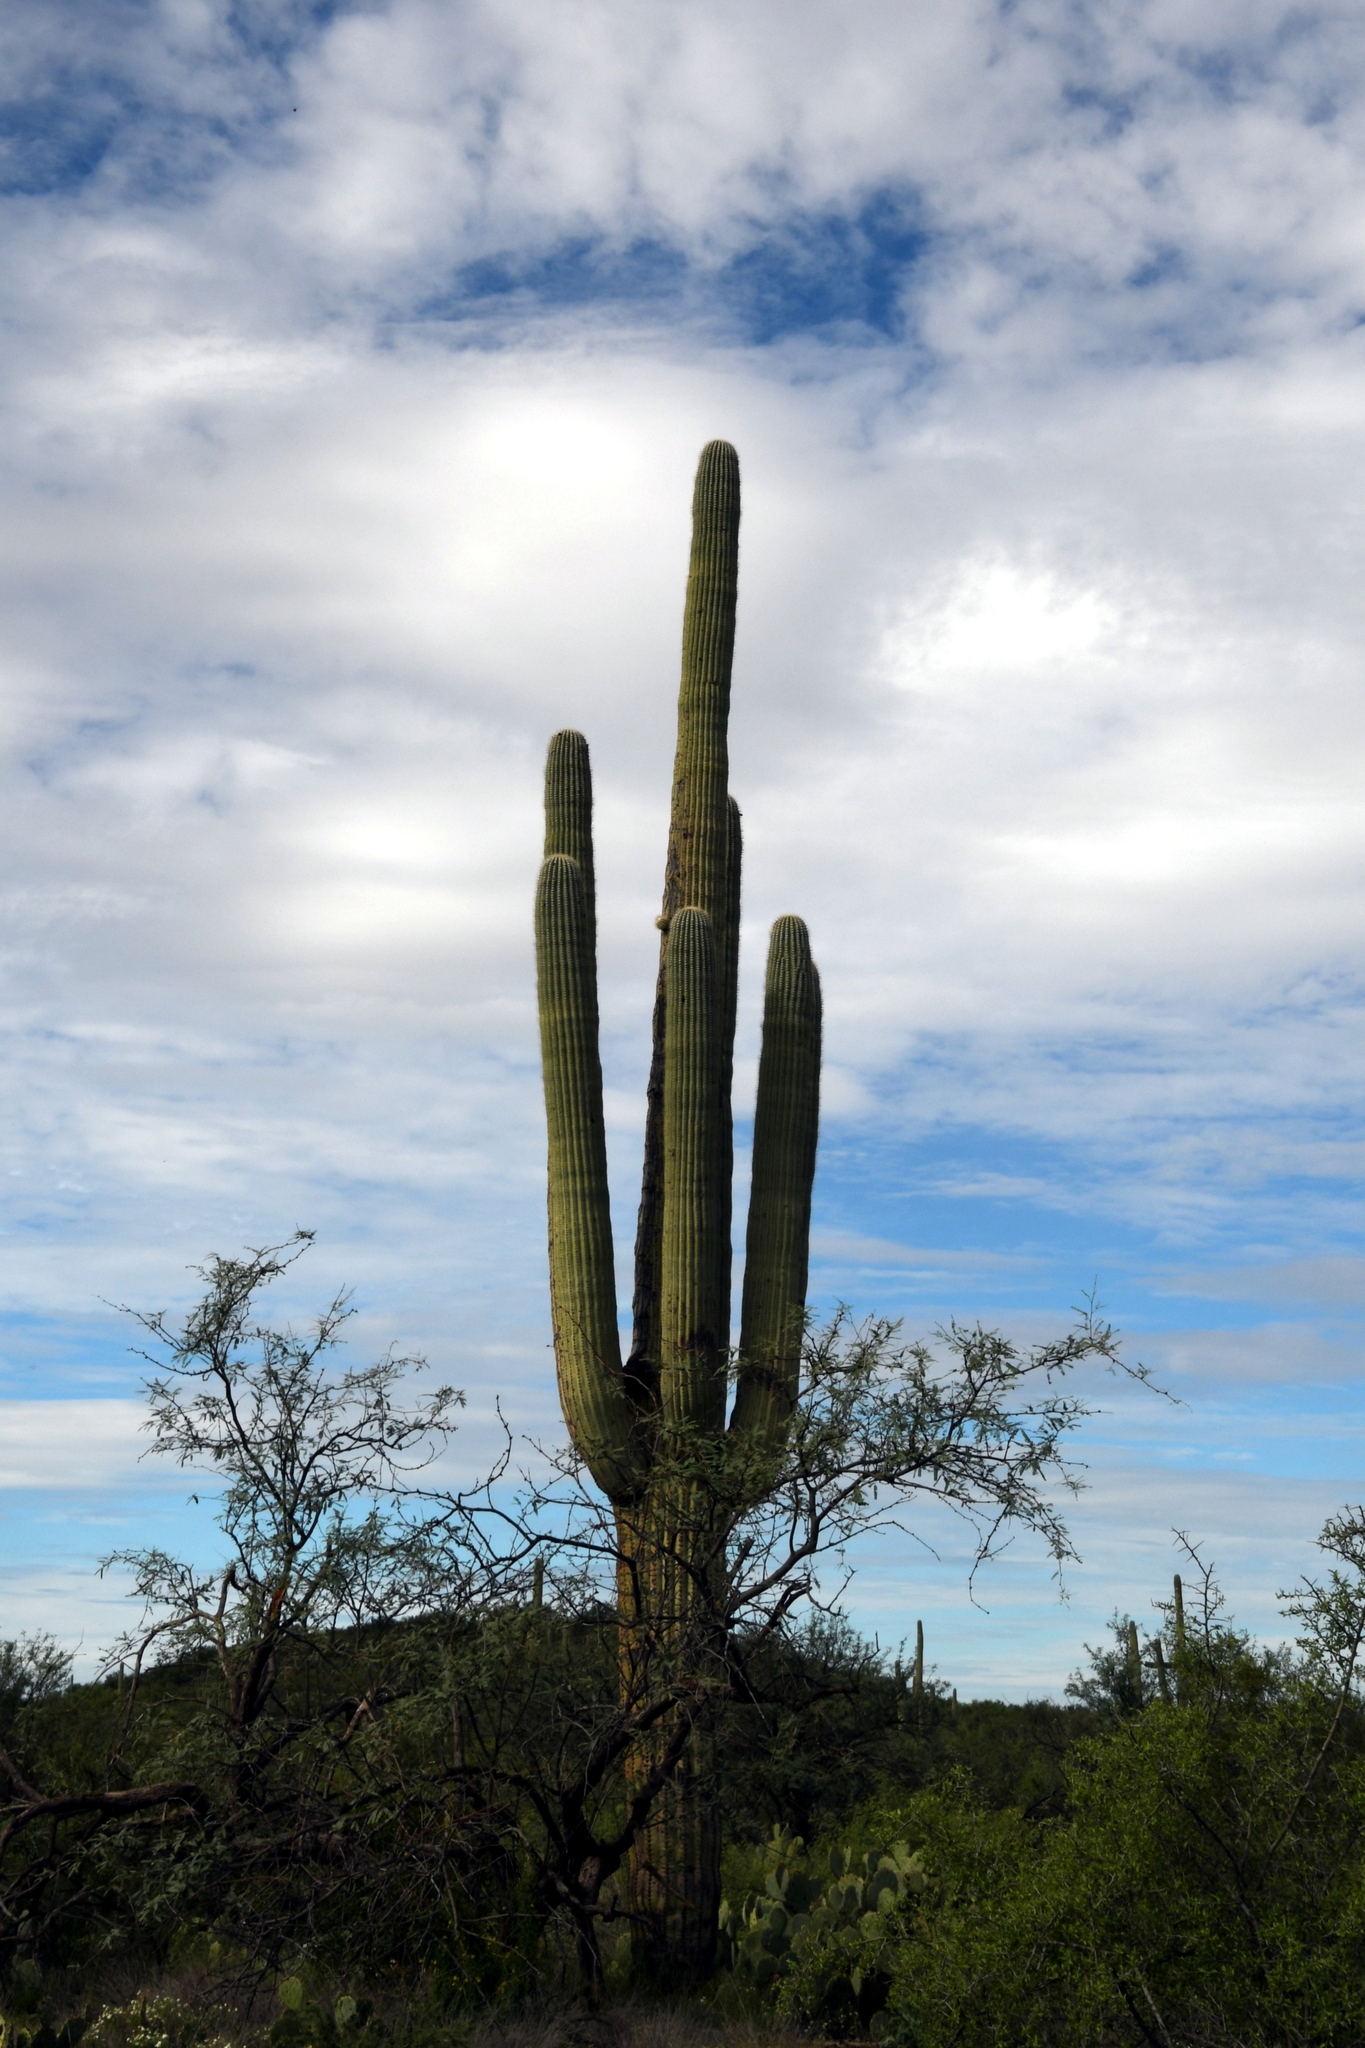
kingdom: Plantae
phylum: Tracheophyta
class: Magnoliopsida
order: Caryophyllales
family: Cactaceae
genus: Carnegiea
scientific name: Carnegiea gigantea
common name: Saguaro
